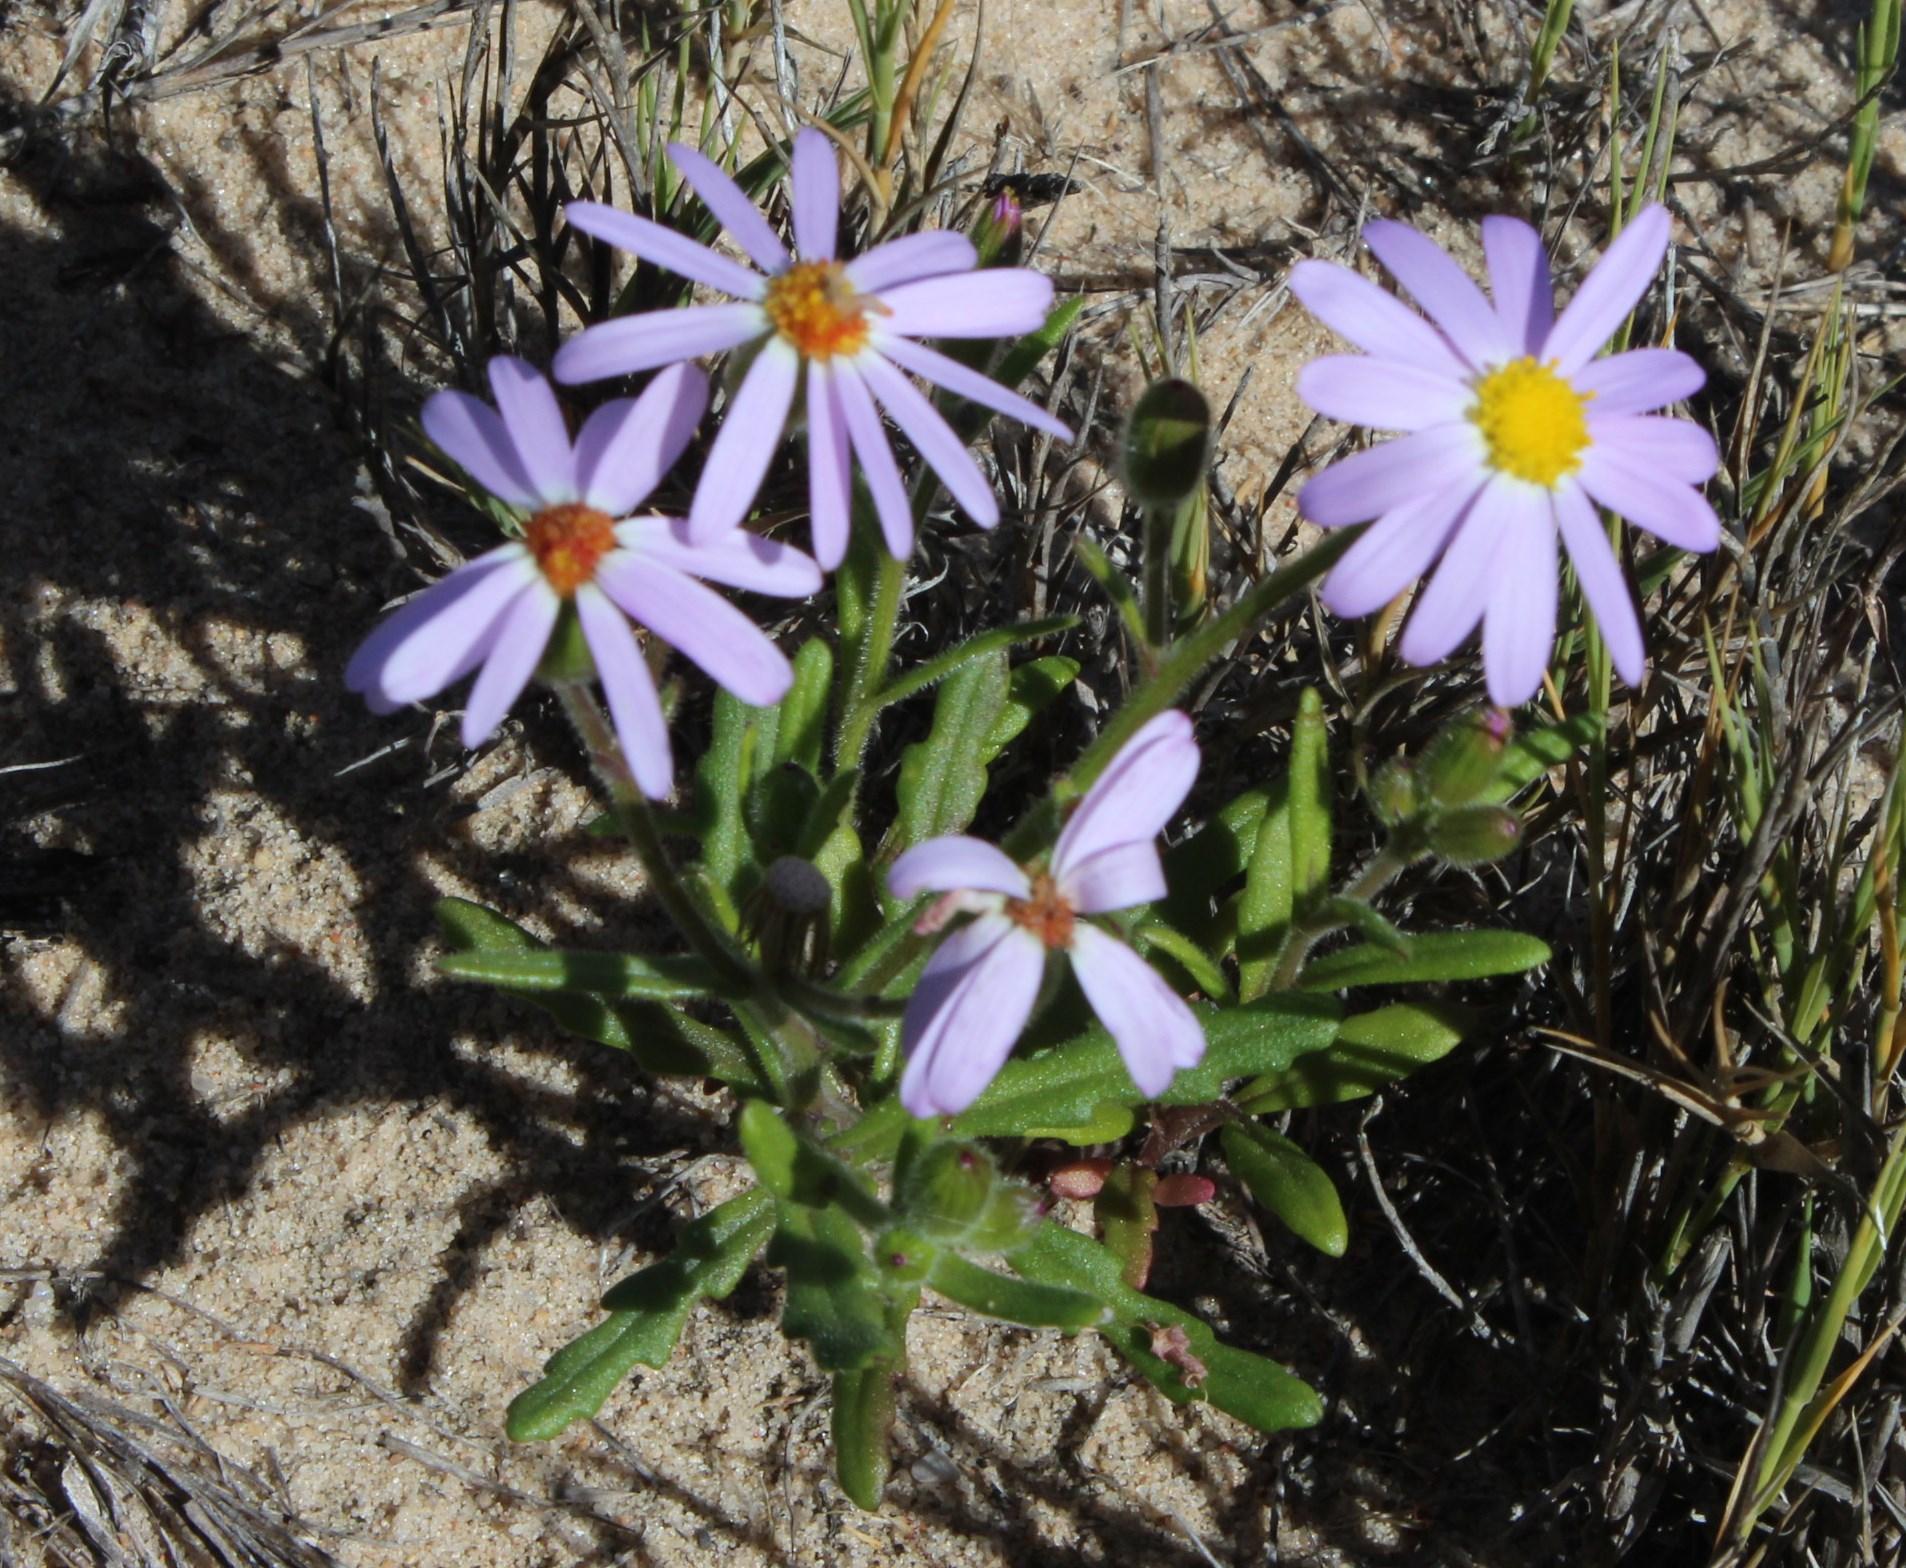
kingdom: Plantae
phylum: Tracheophyta
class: Magnoliopsida
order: Asterales
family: Asteraceae
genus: Senecio
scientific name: Senecio arenarius
